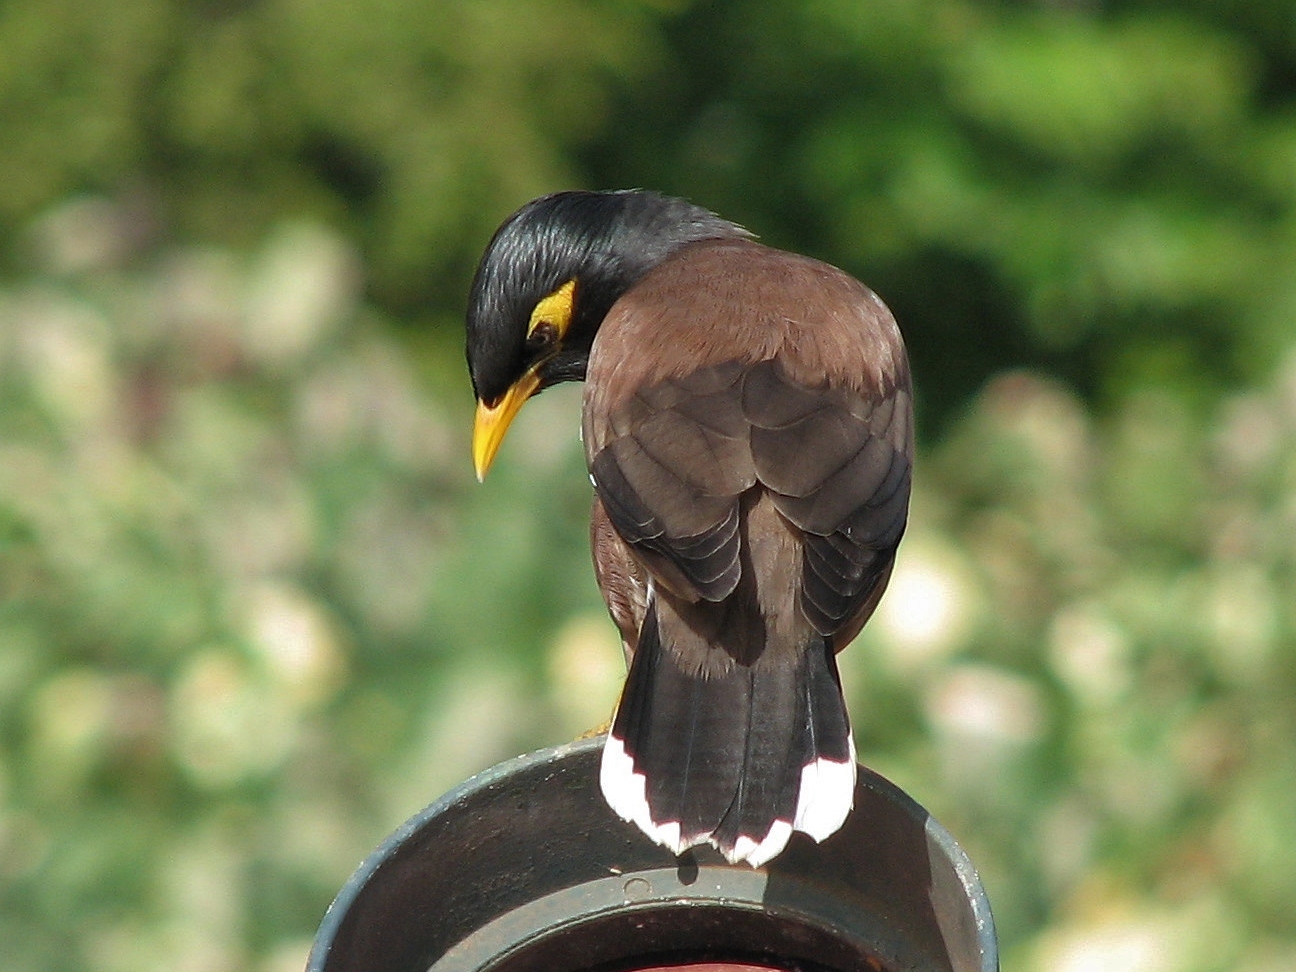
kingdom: Animalia
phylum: Chordata
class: Aves
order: Passeriformes
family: Sturnidae
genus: Acridotheres
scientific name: Acridotheres tristis
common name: Common myna
